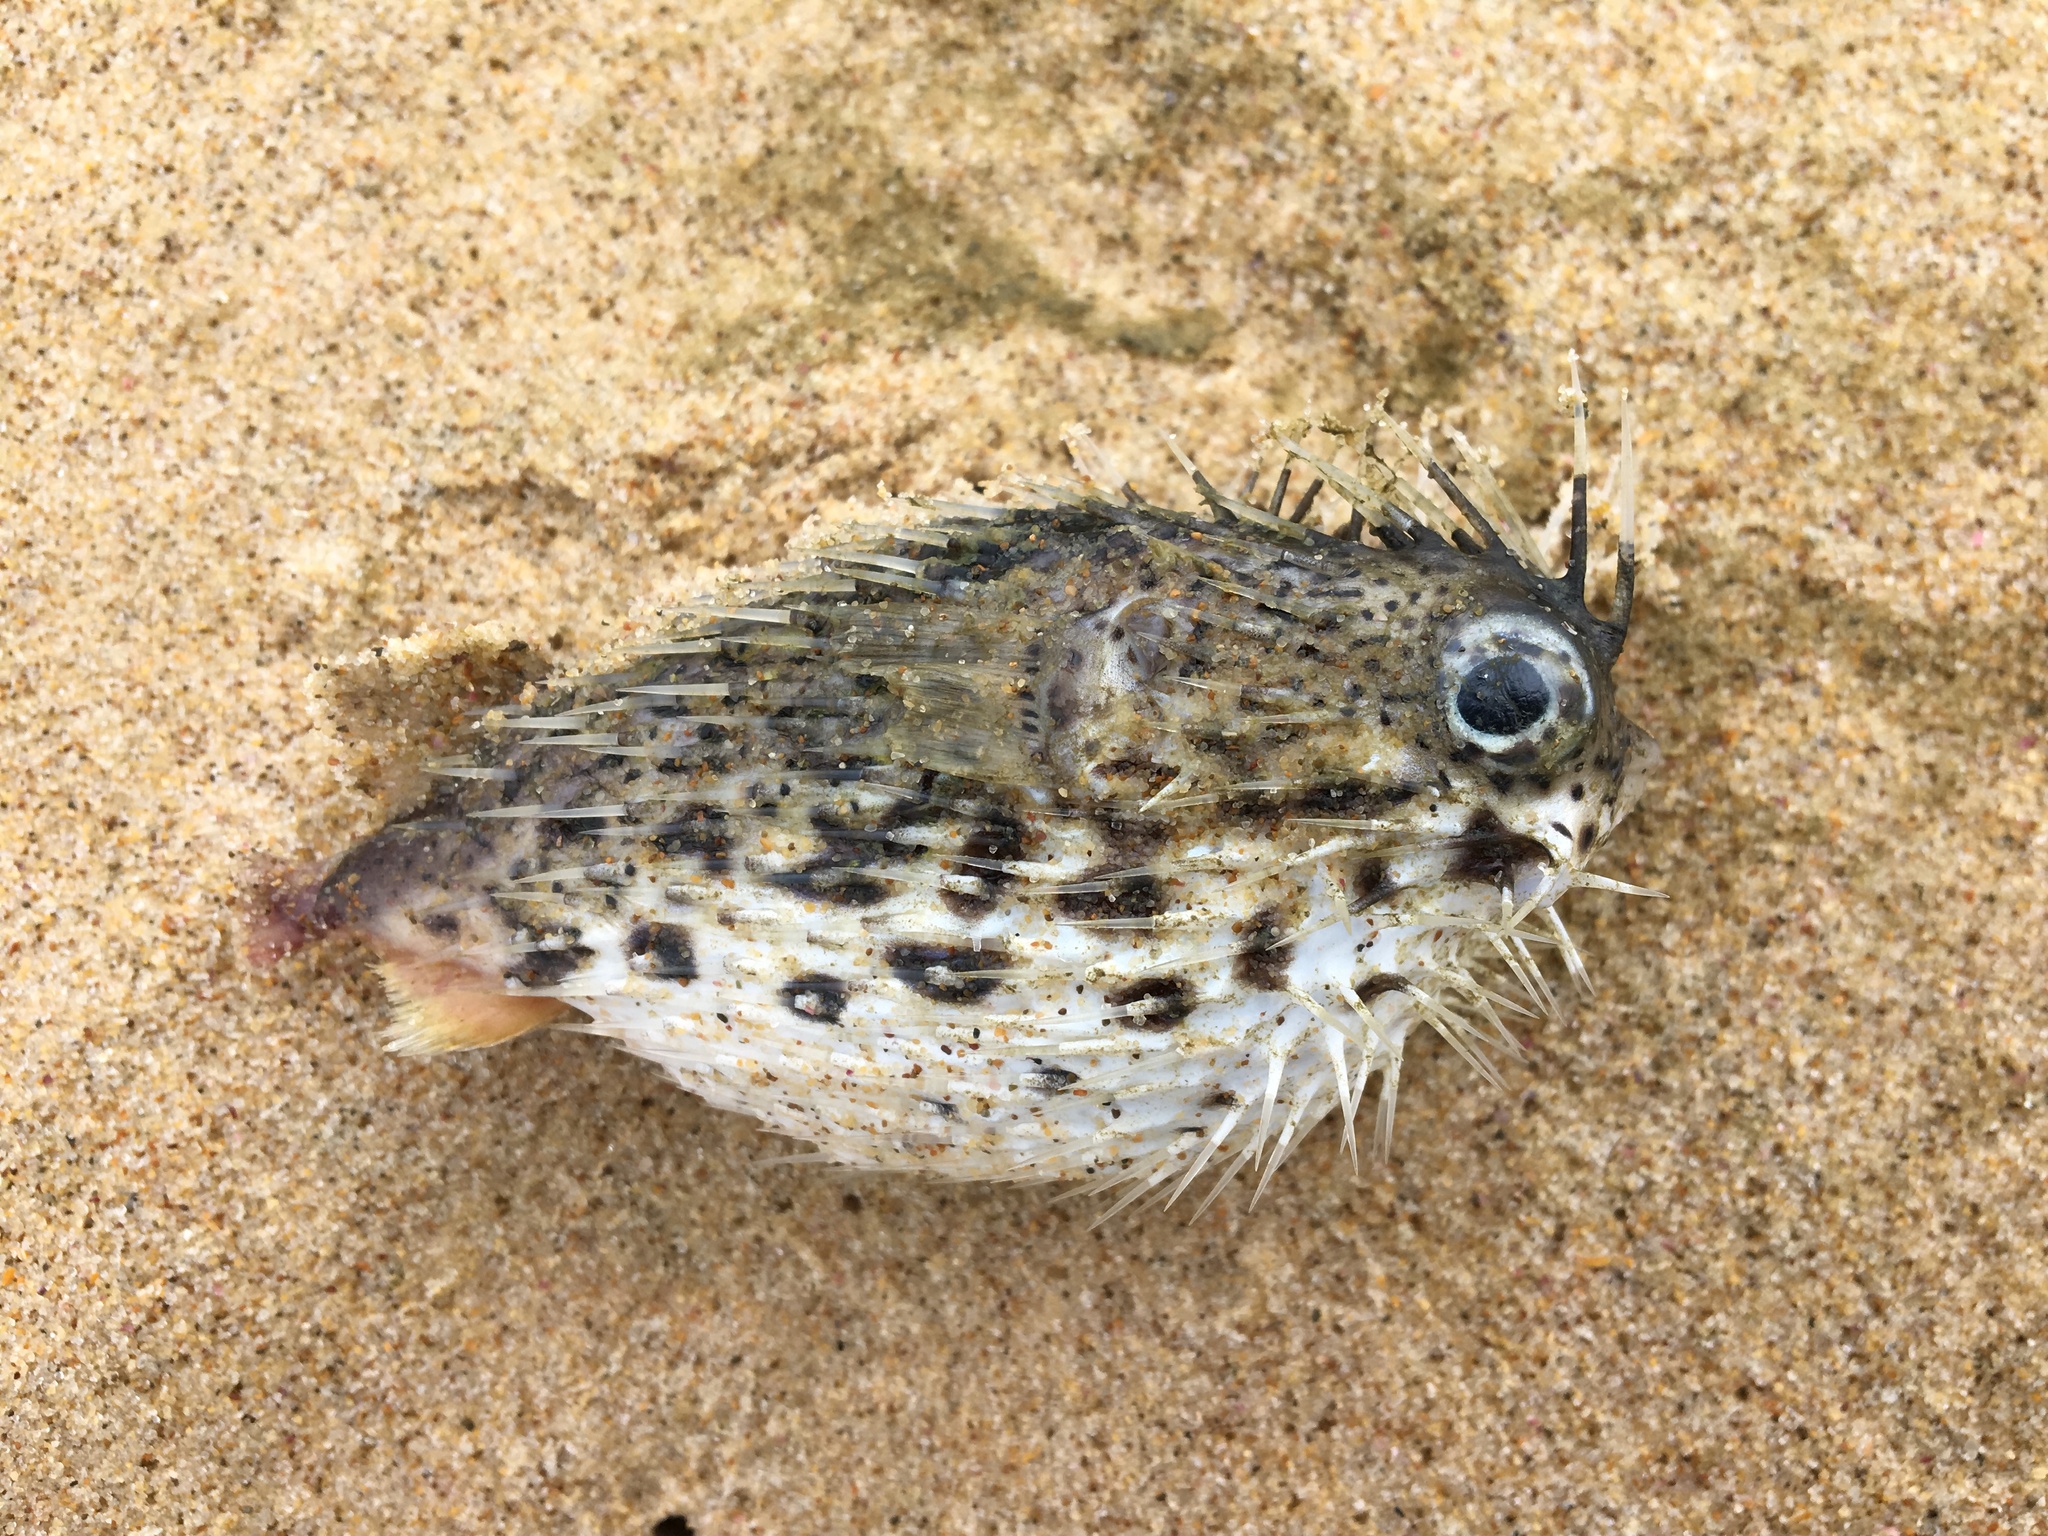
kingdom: Animalia
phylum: Chordata
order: Tetraodontiformes
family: Diodontidae
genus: Diodon
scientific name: Diodon holocanthus
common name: Balloonfish
